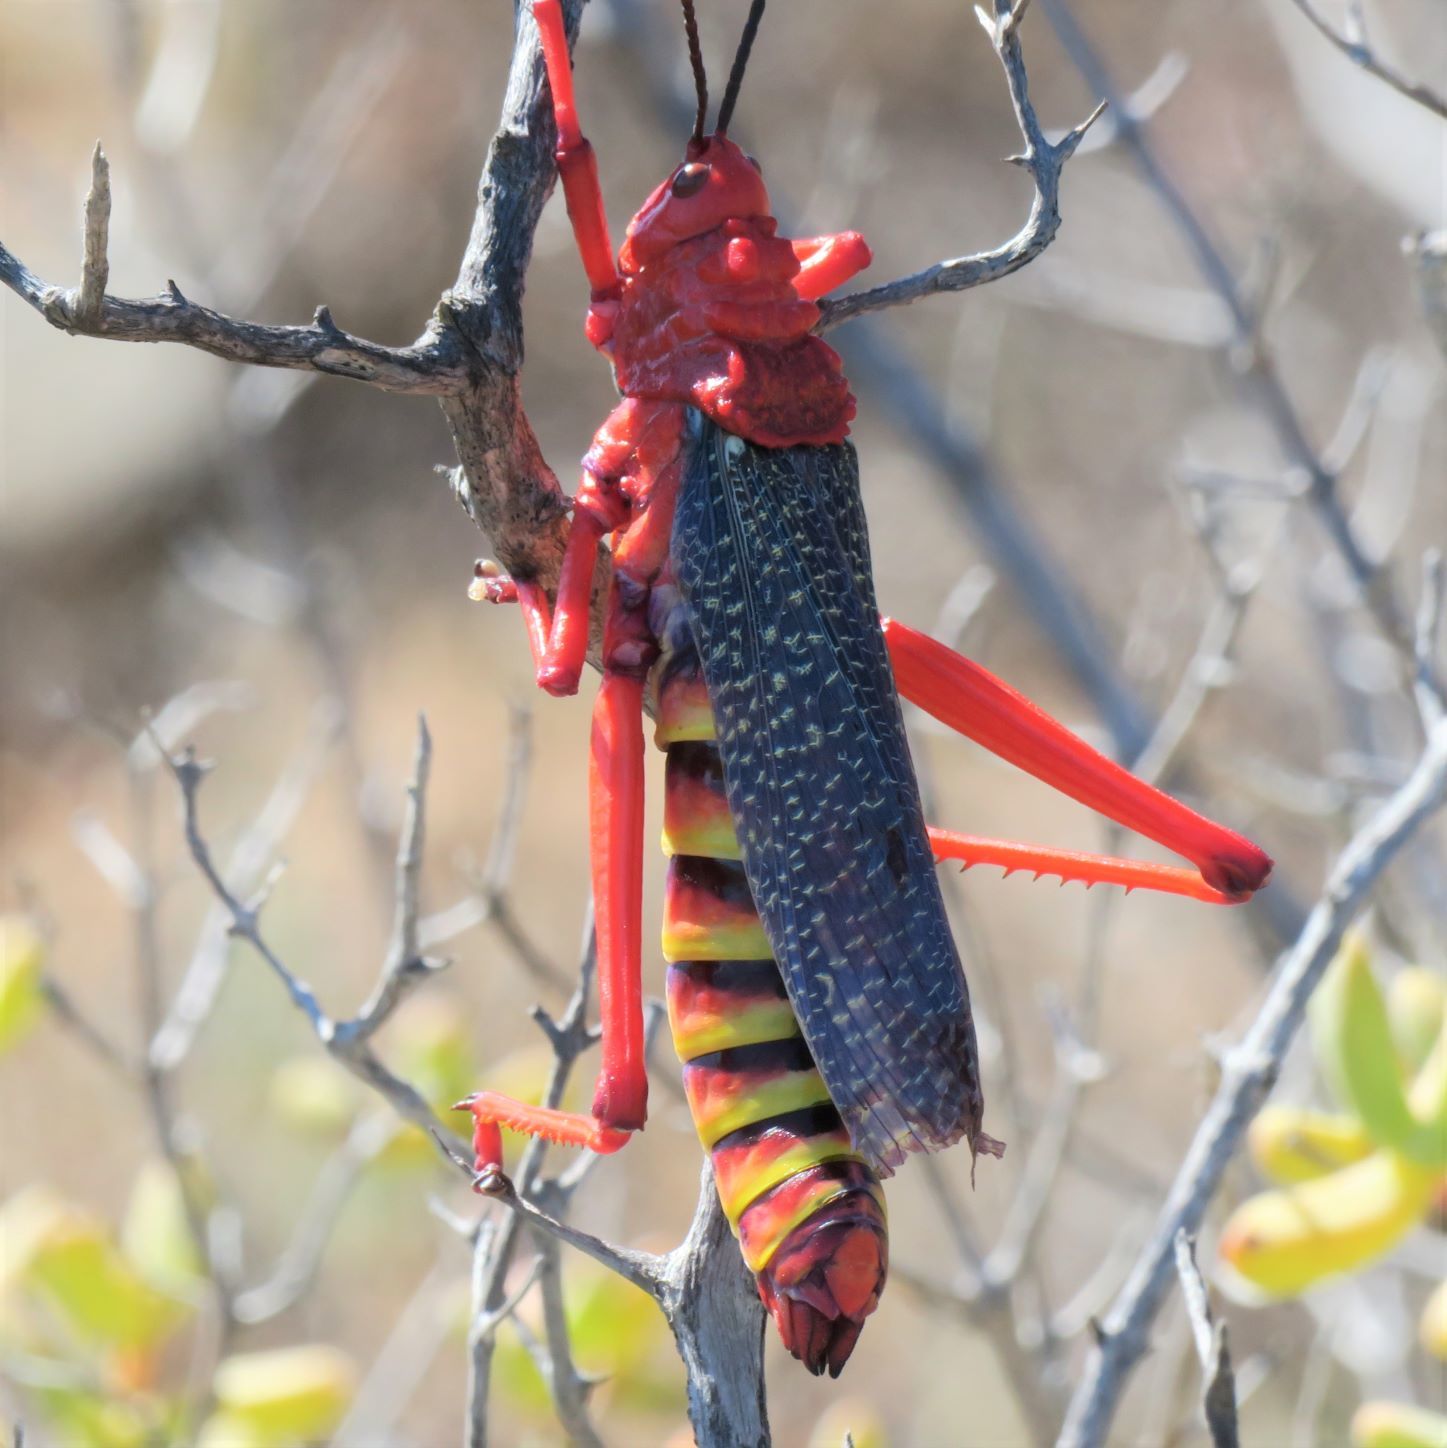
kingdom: Animalia
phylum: Arthropoda
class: Insecta
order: Orthoptera
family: Pyrgomorphidae
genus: Phymateus
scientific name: Phymateus morbillosus
